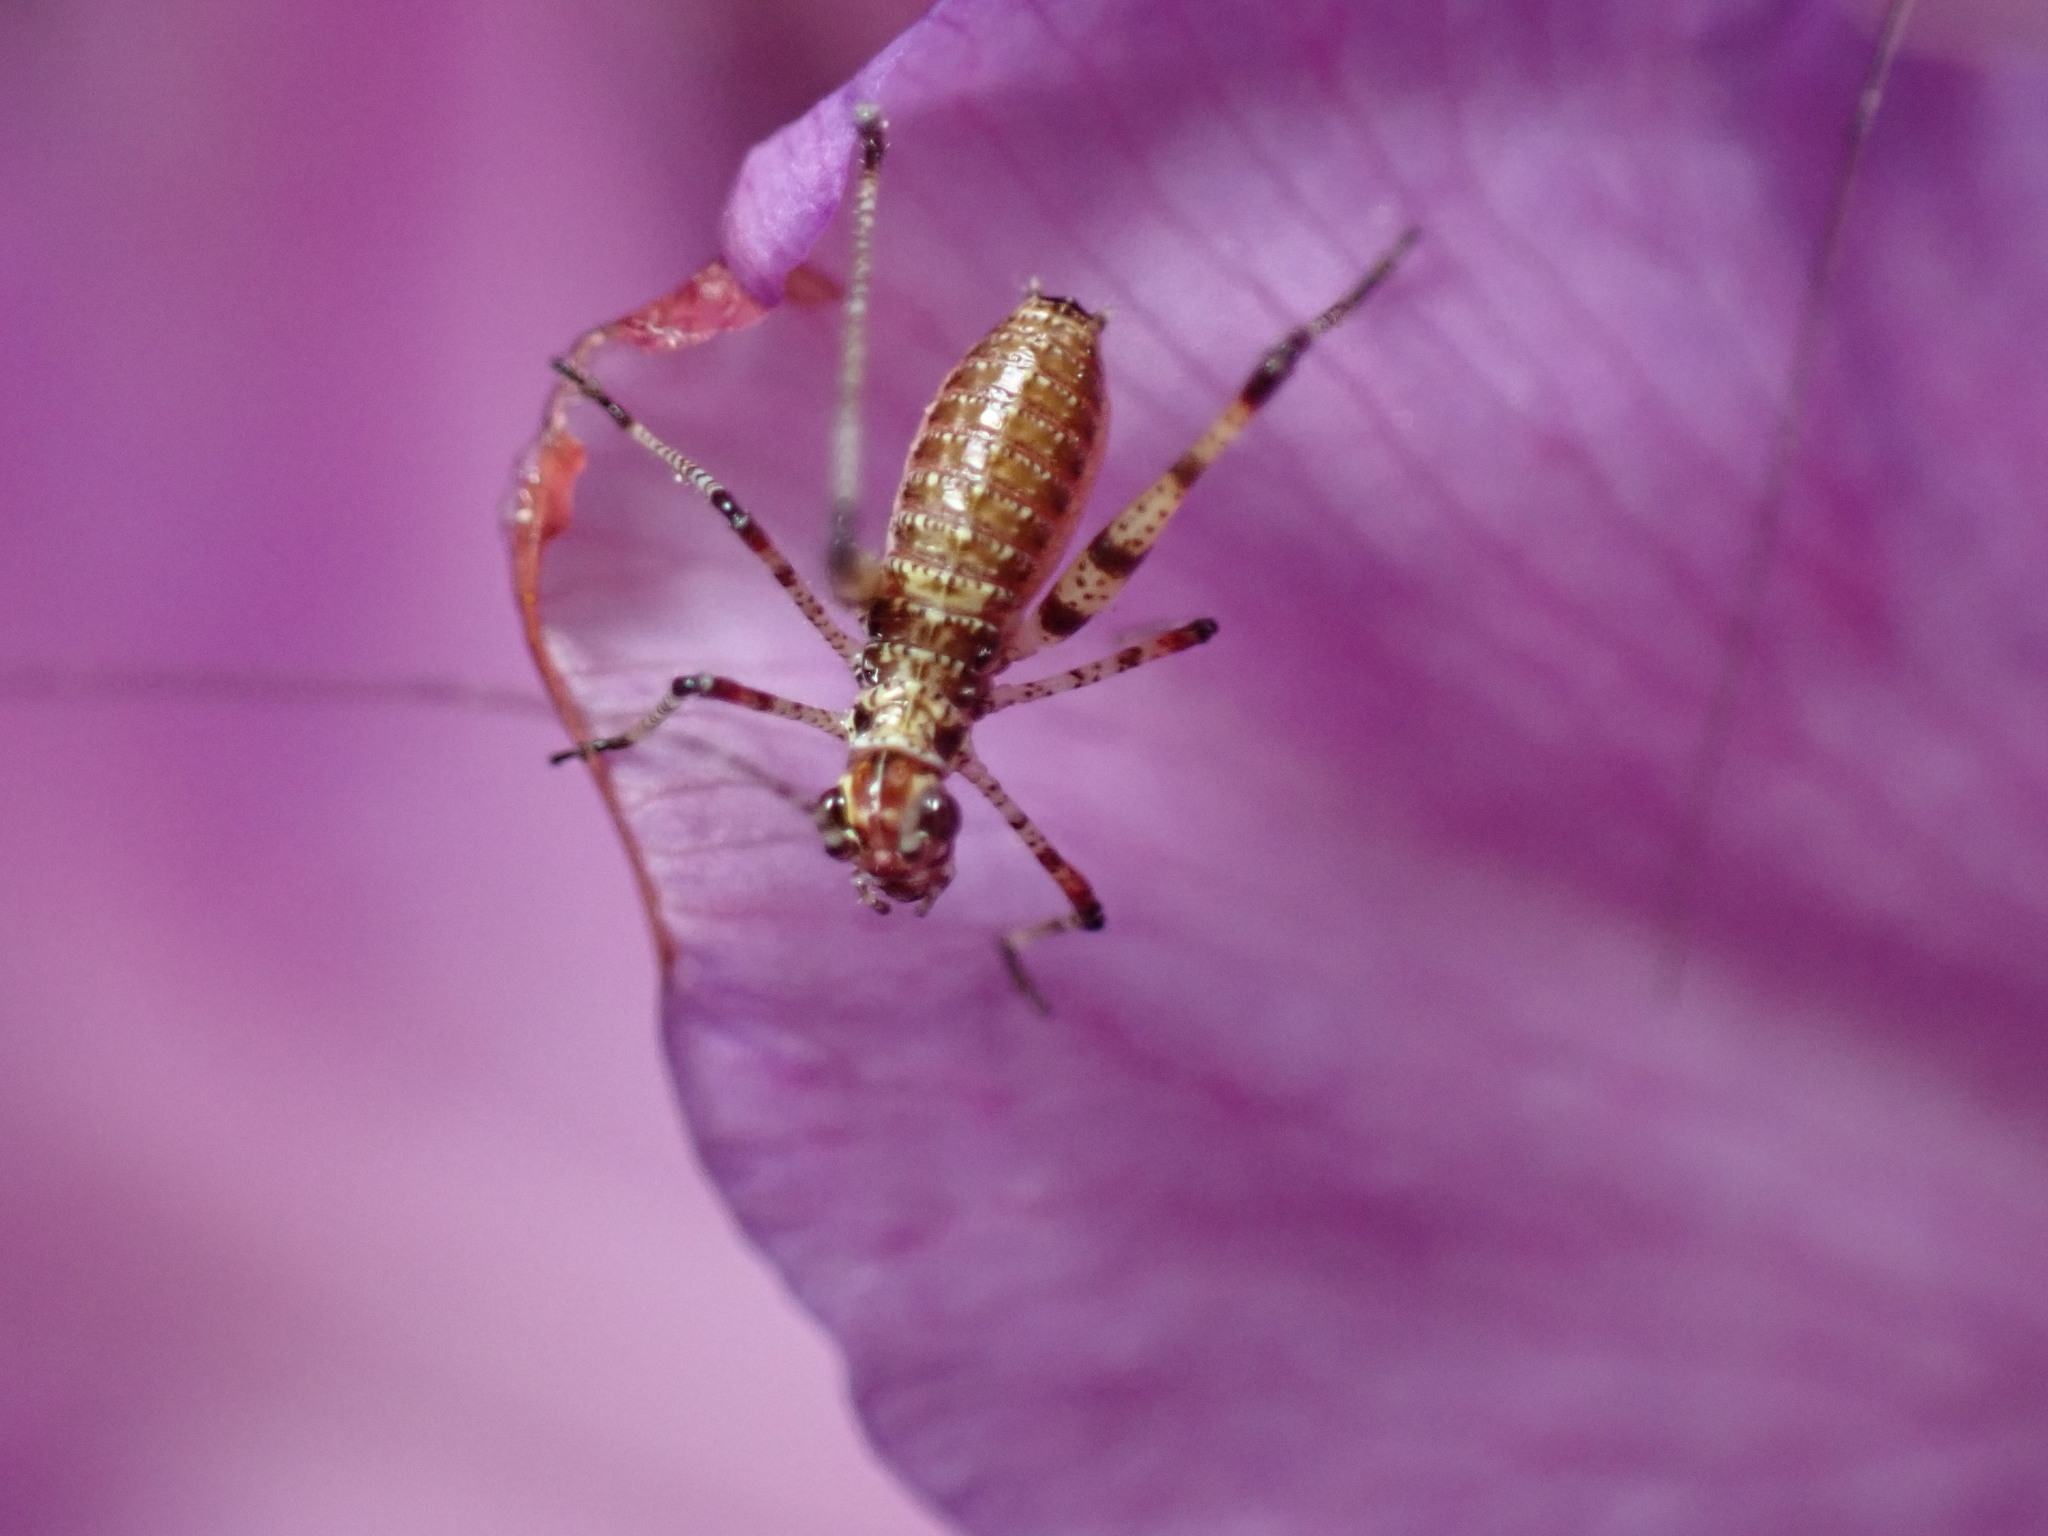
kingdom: Animalia
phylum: Arthropoda
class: Insecta
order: Orthoptera
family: Tettigoniidae
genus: Phaneroptera
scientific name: Phaneroptera nana
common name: Southern sickle bush-cricket
